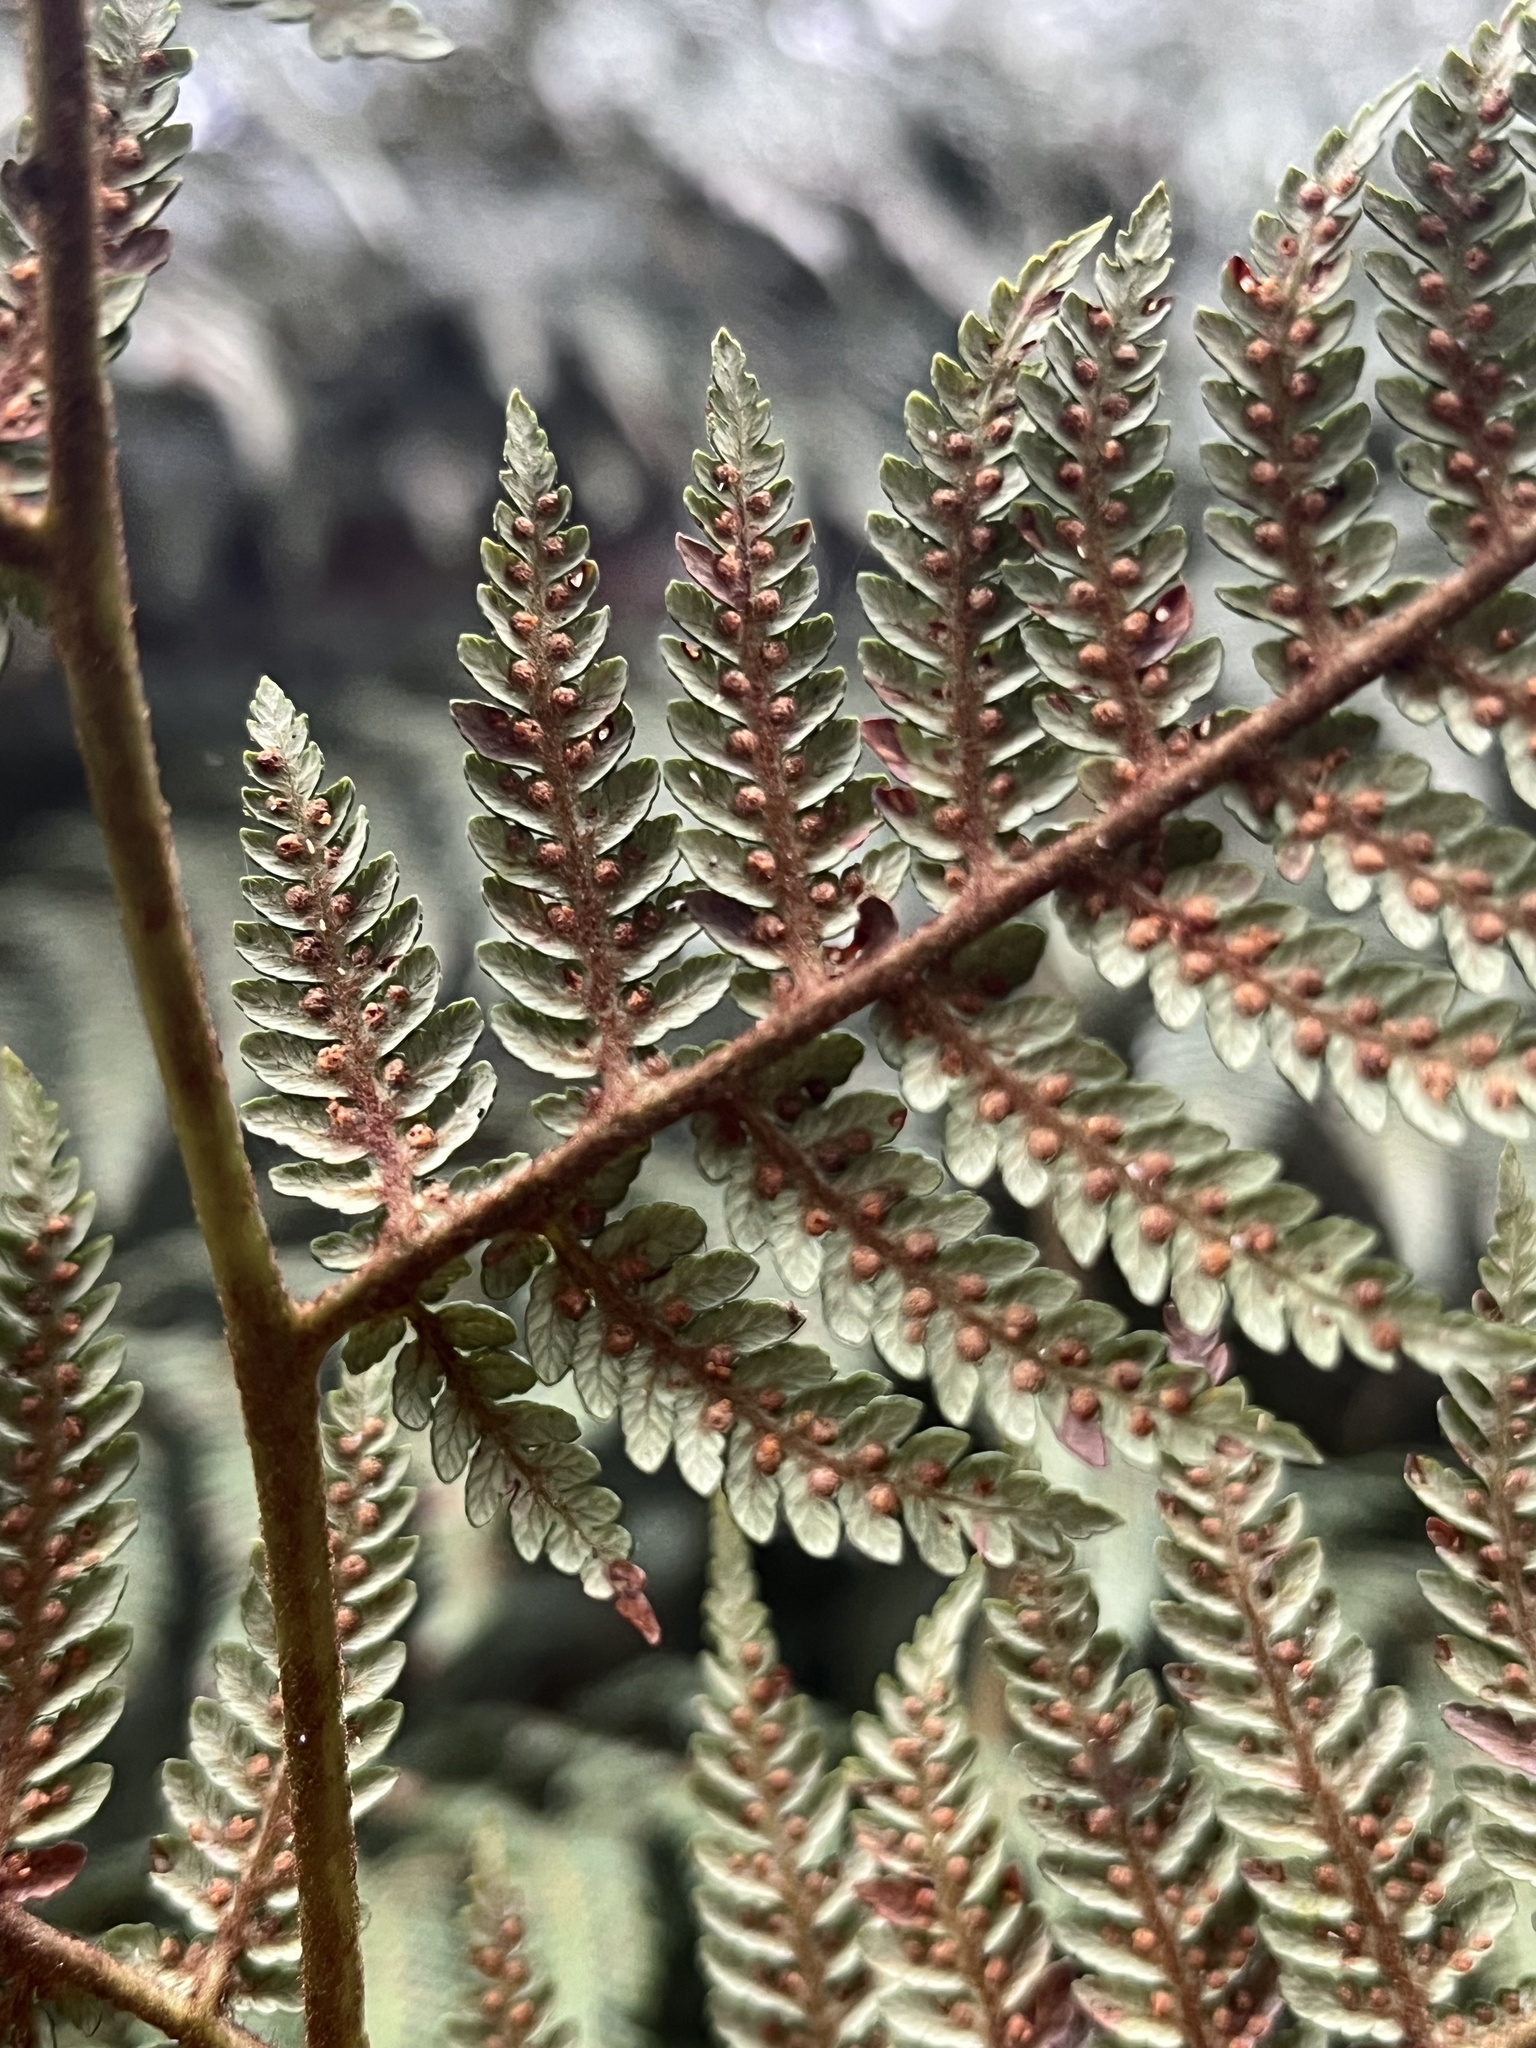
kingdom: Plantae
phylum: Tracheophyta
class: Polypodiopsida
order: Cyatheales
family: Dicksoniaceae
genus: Lophosoria
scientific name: Lophosoria quadripinnata
